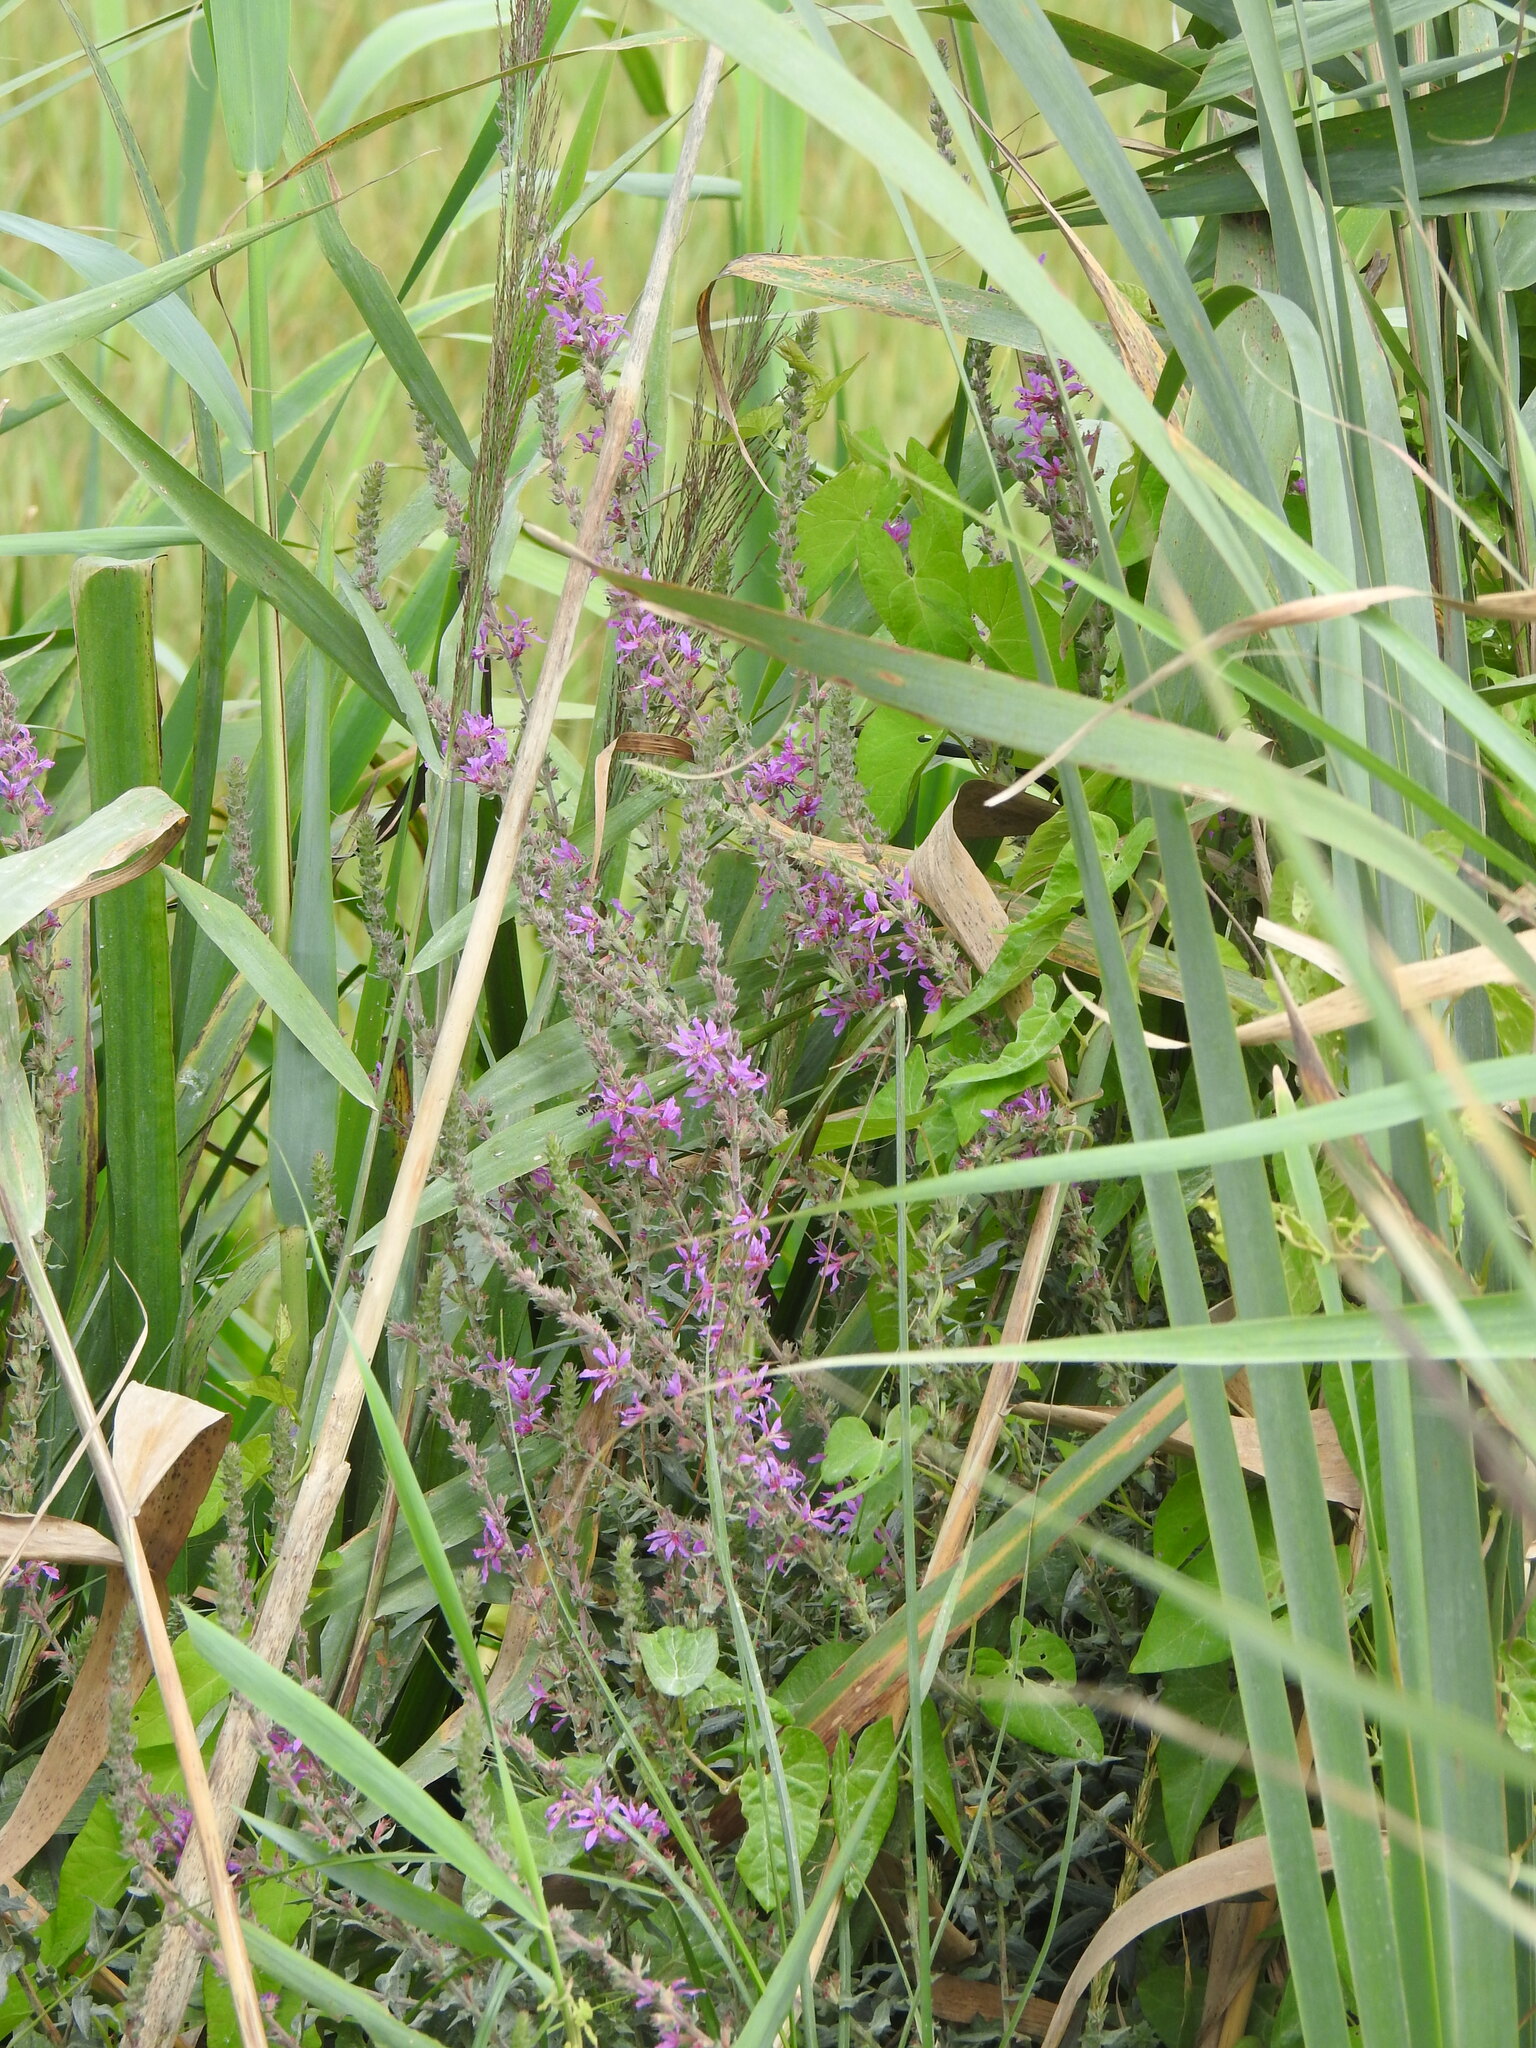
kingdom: Plantae
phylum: Tracheophyta
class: Magnoliopsida
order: Myrtales
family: Lythraceae
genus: Lythrum
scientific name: Lythrum salicaria
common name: Purple loosestrife
